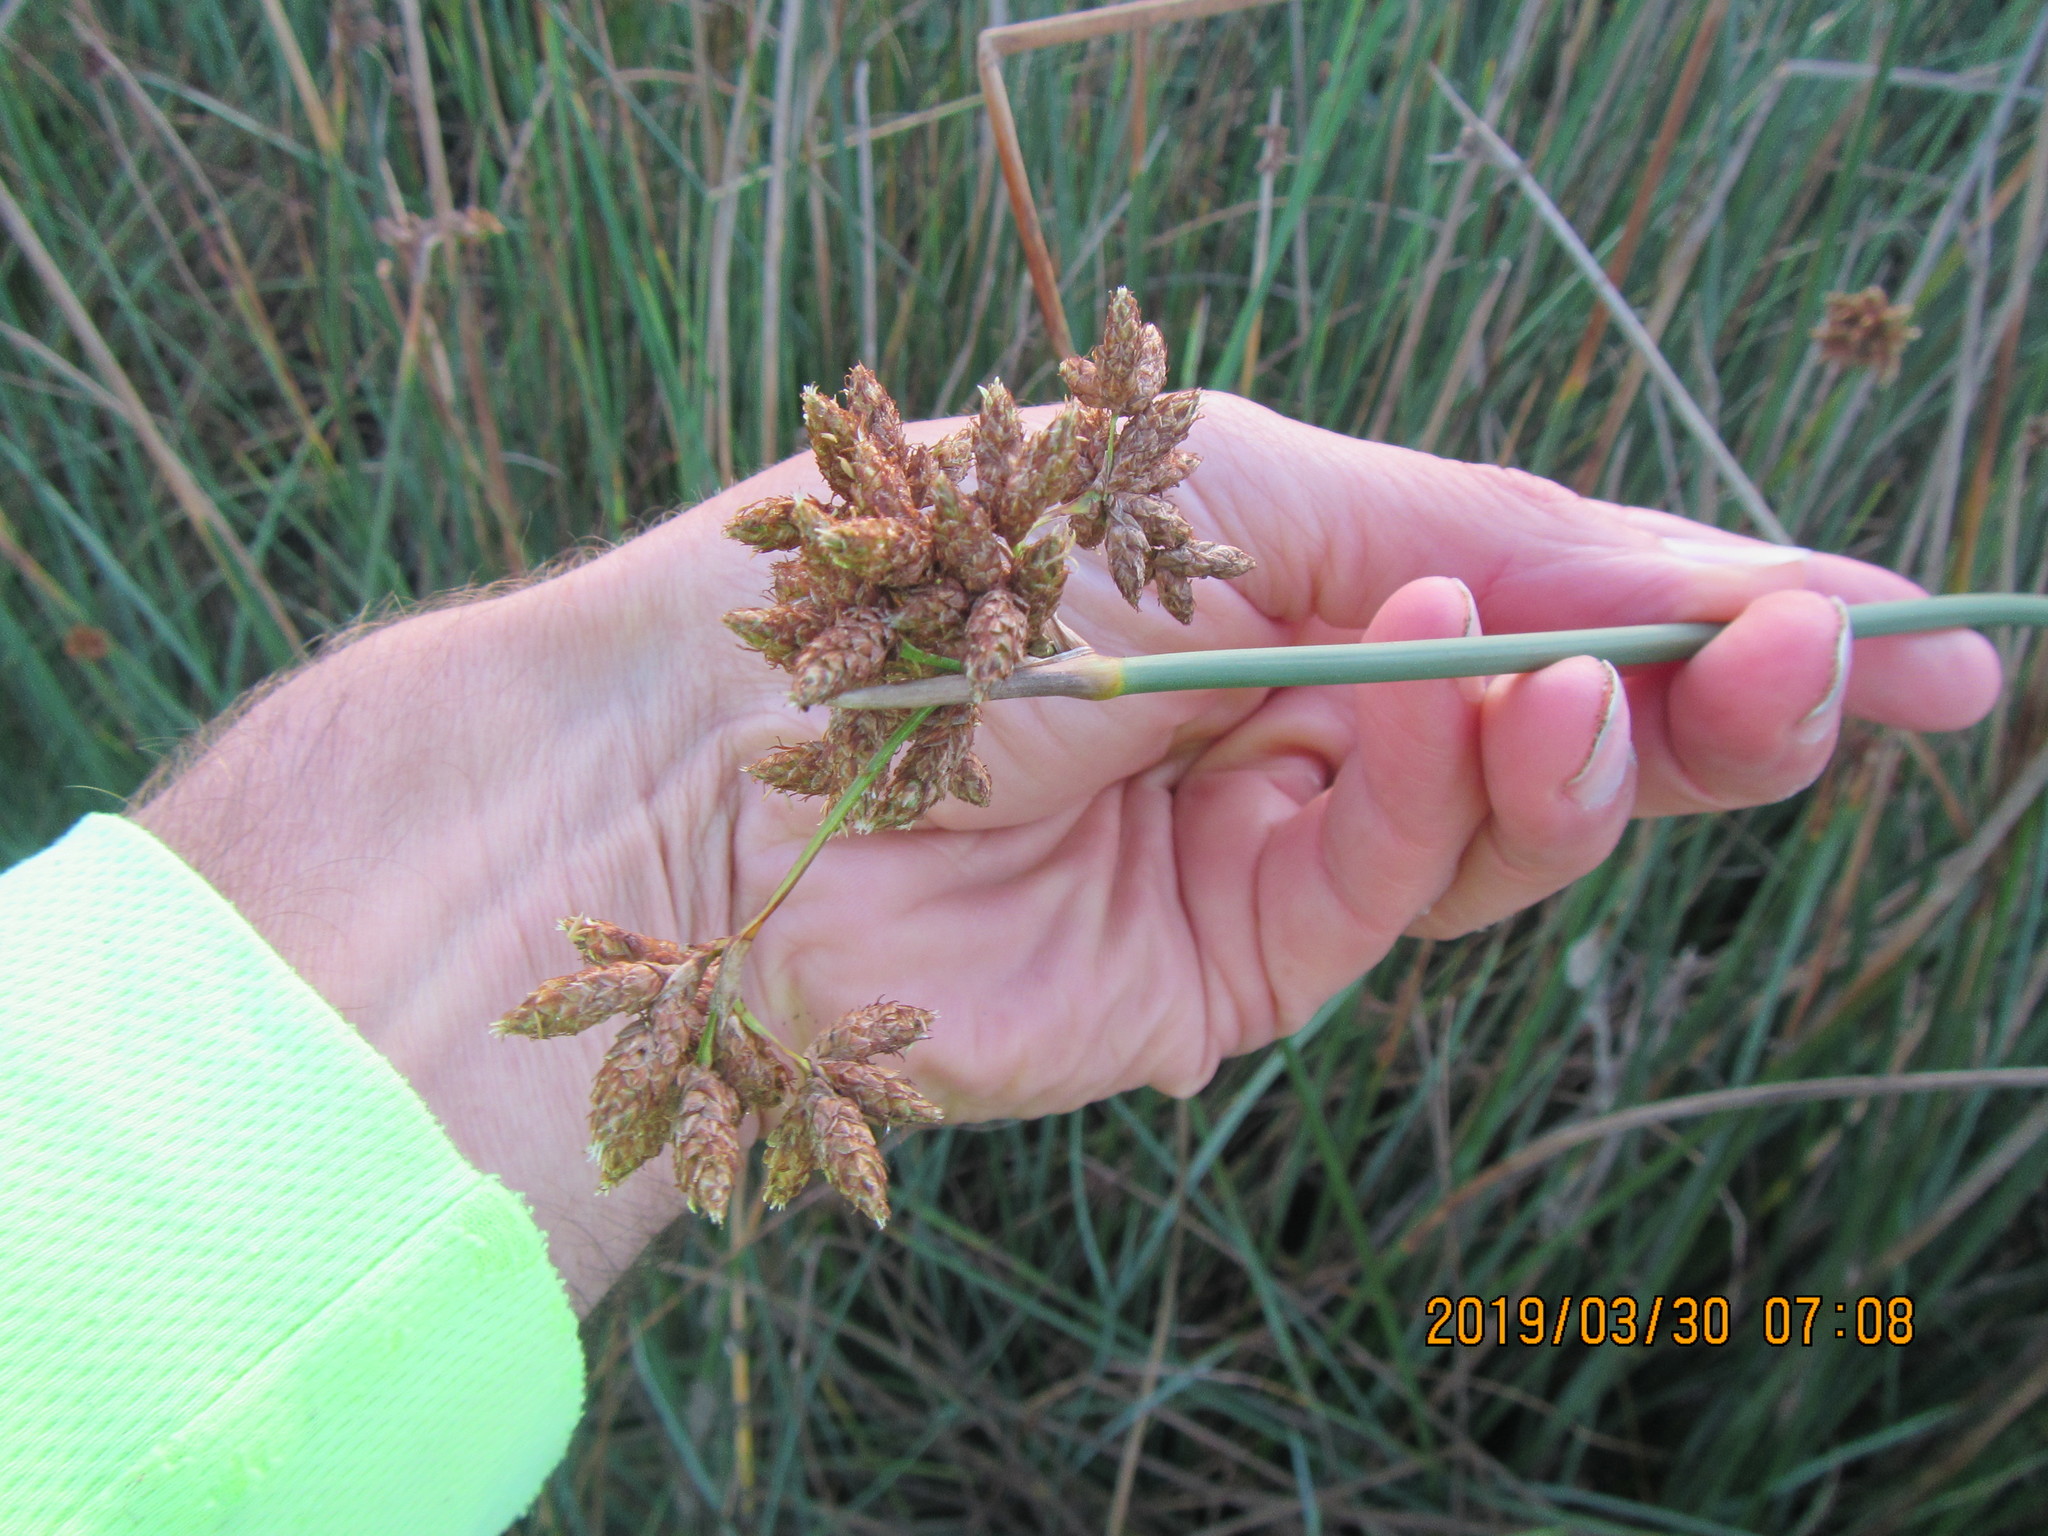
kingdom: Plantae
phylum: Tracheophyta
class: Liliopsida
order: Poales
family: Cyperaceae
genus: Schoenoplectus
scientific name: Schoenoplectus tabernaemontani
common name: Grey club-rush
